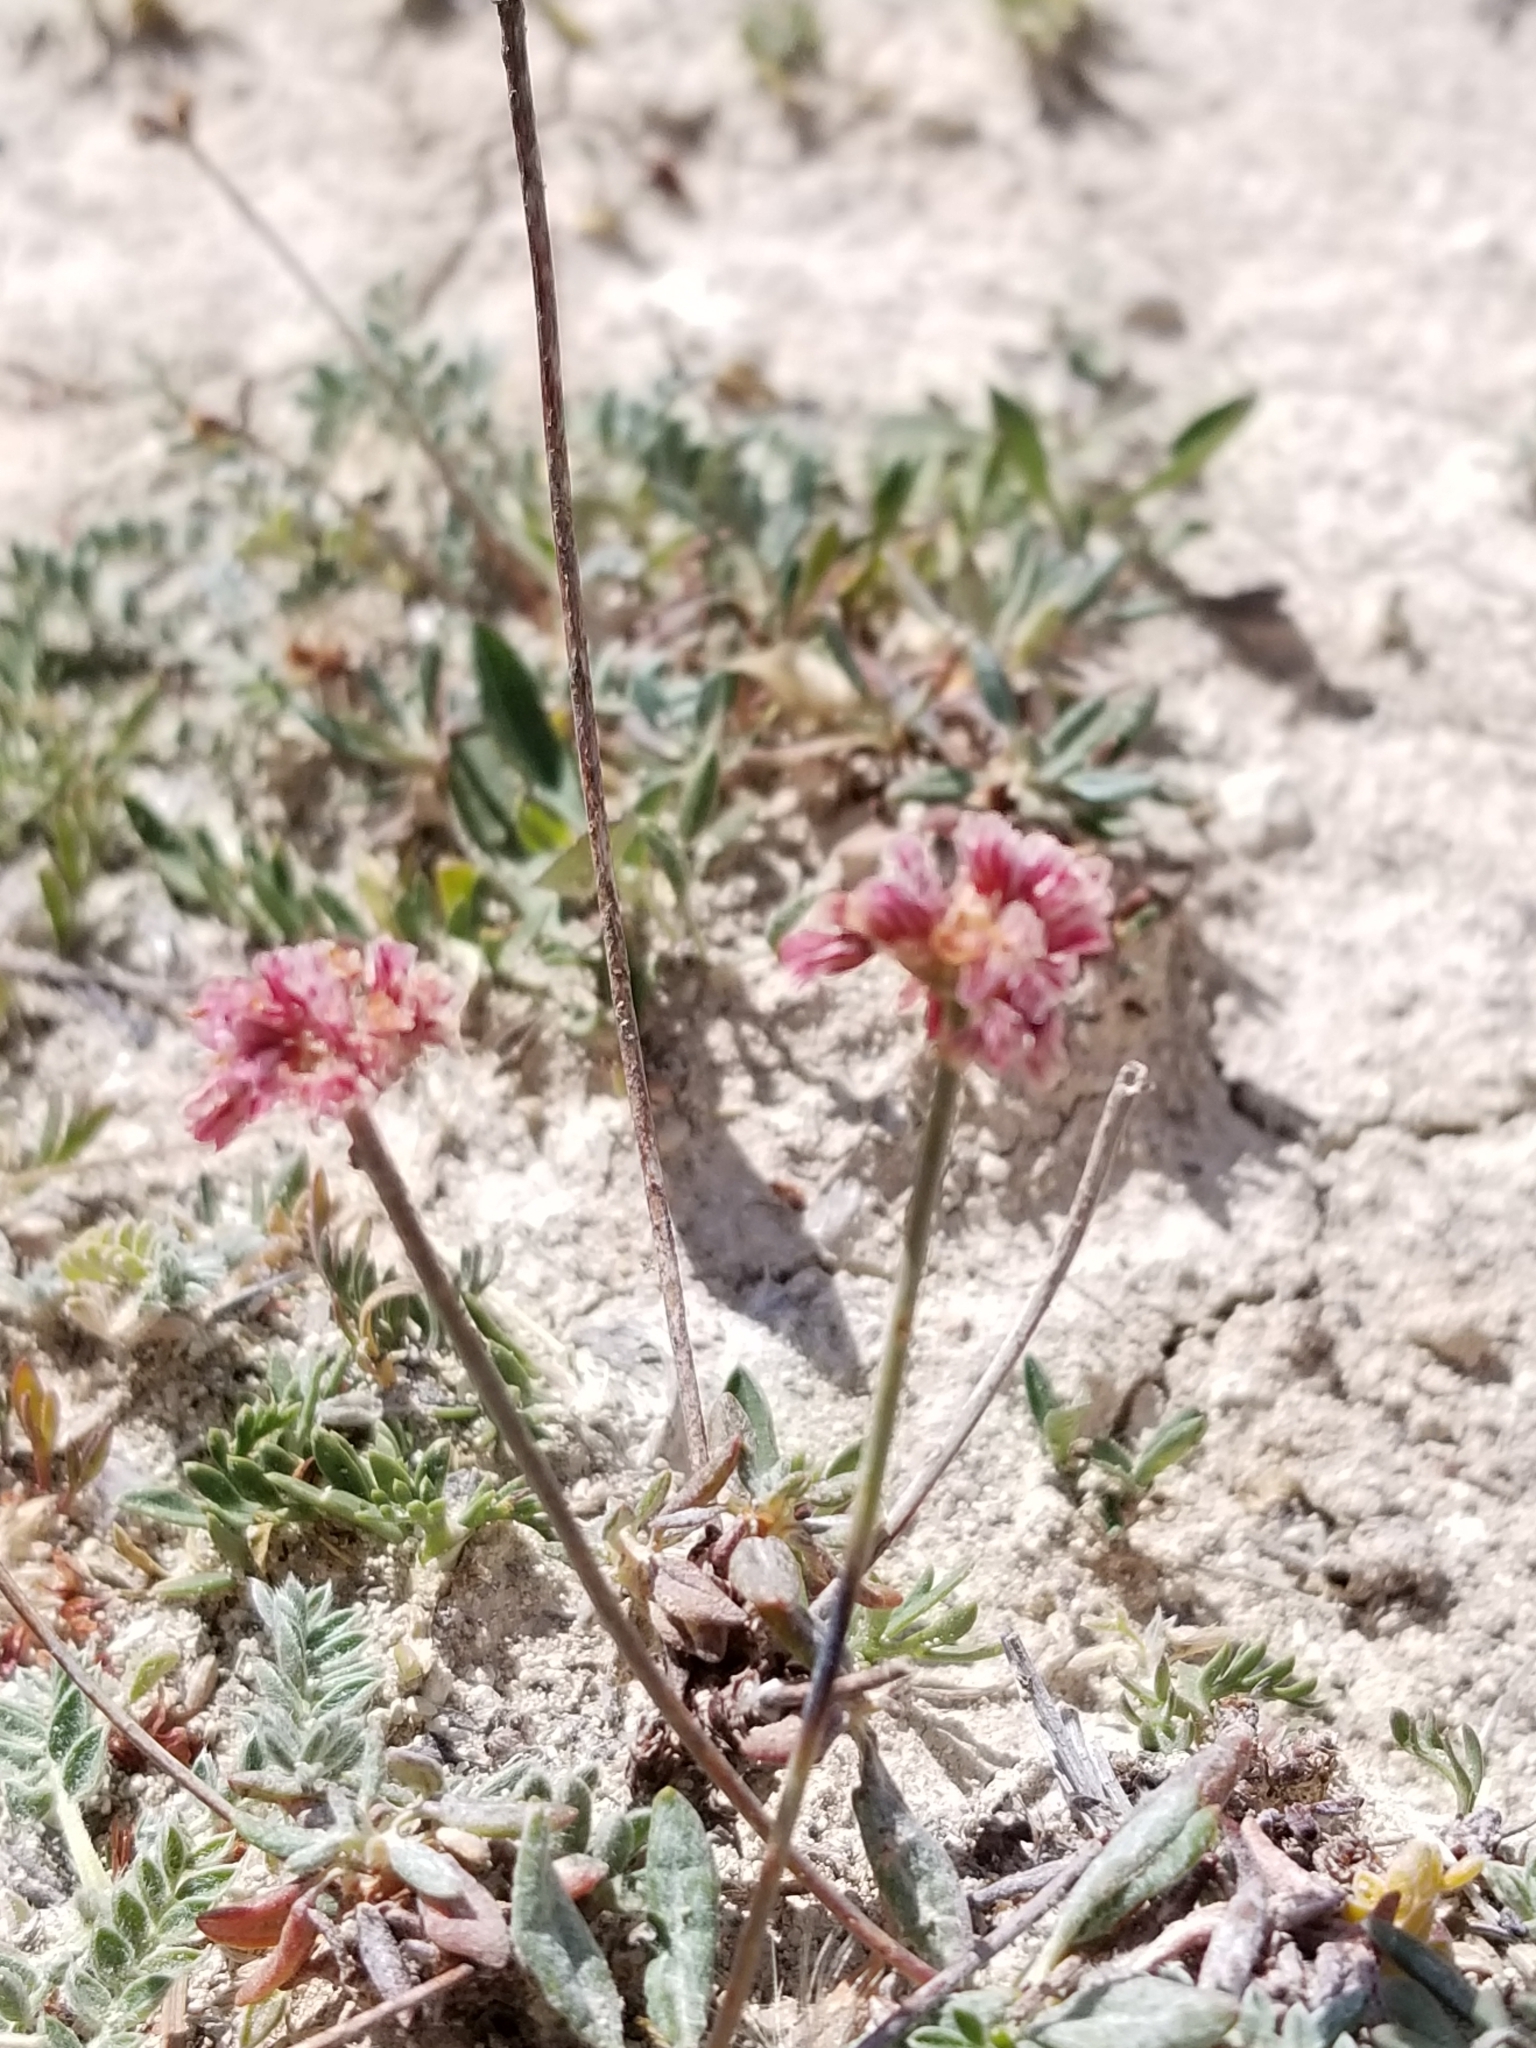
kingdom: Plantae
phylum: Tracheophyta
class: Magnoliopsida
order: Caryophyllales
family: Polygonaceae
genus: Eriogonum
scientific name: Eriogonum panguicense
